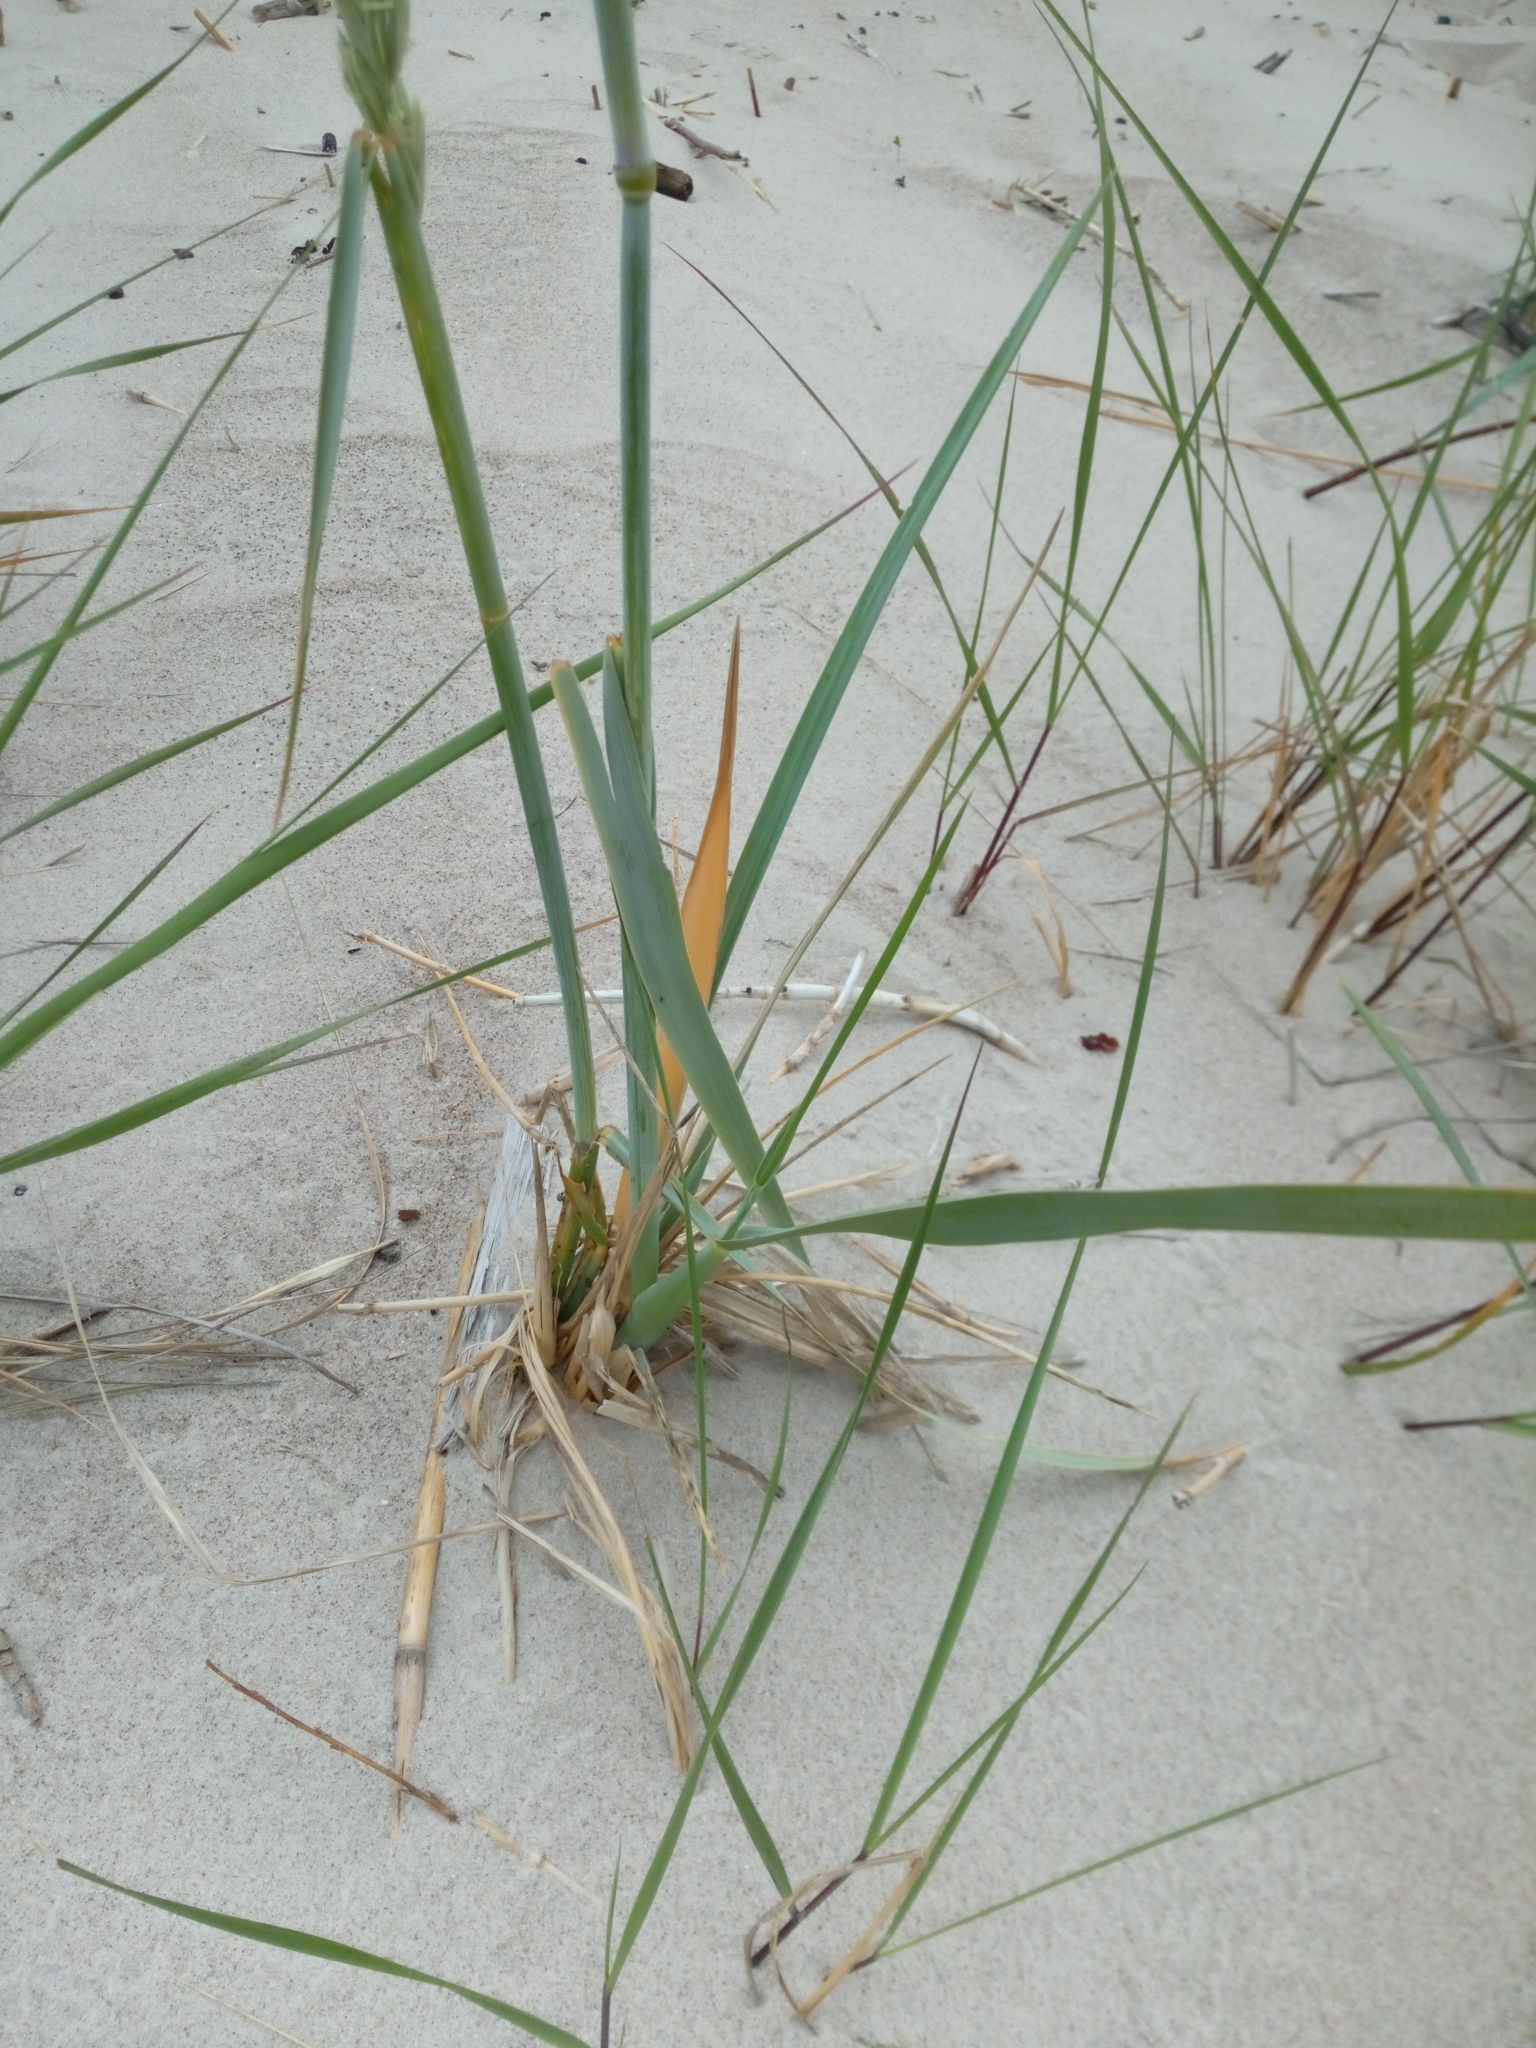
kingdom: Plantae
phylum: Tracheophyta
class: Liliopsida
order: Poales
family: Poaceae
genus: Leymus
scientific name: Leymus arenarius
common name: Lyme-grass
